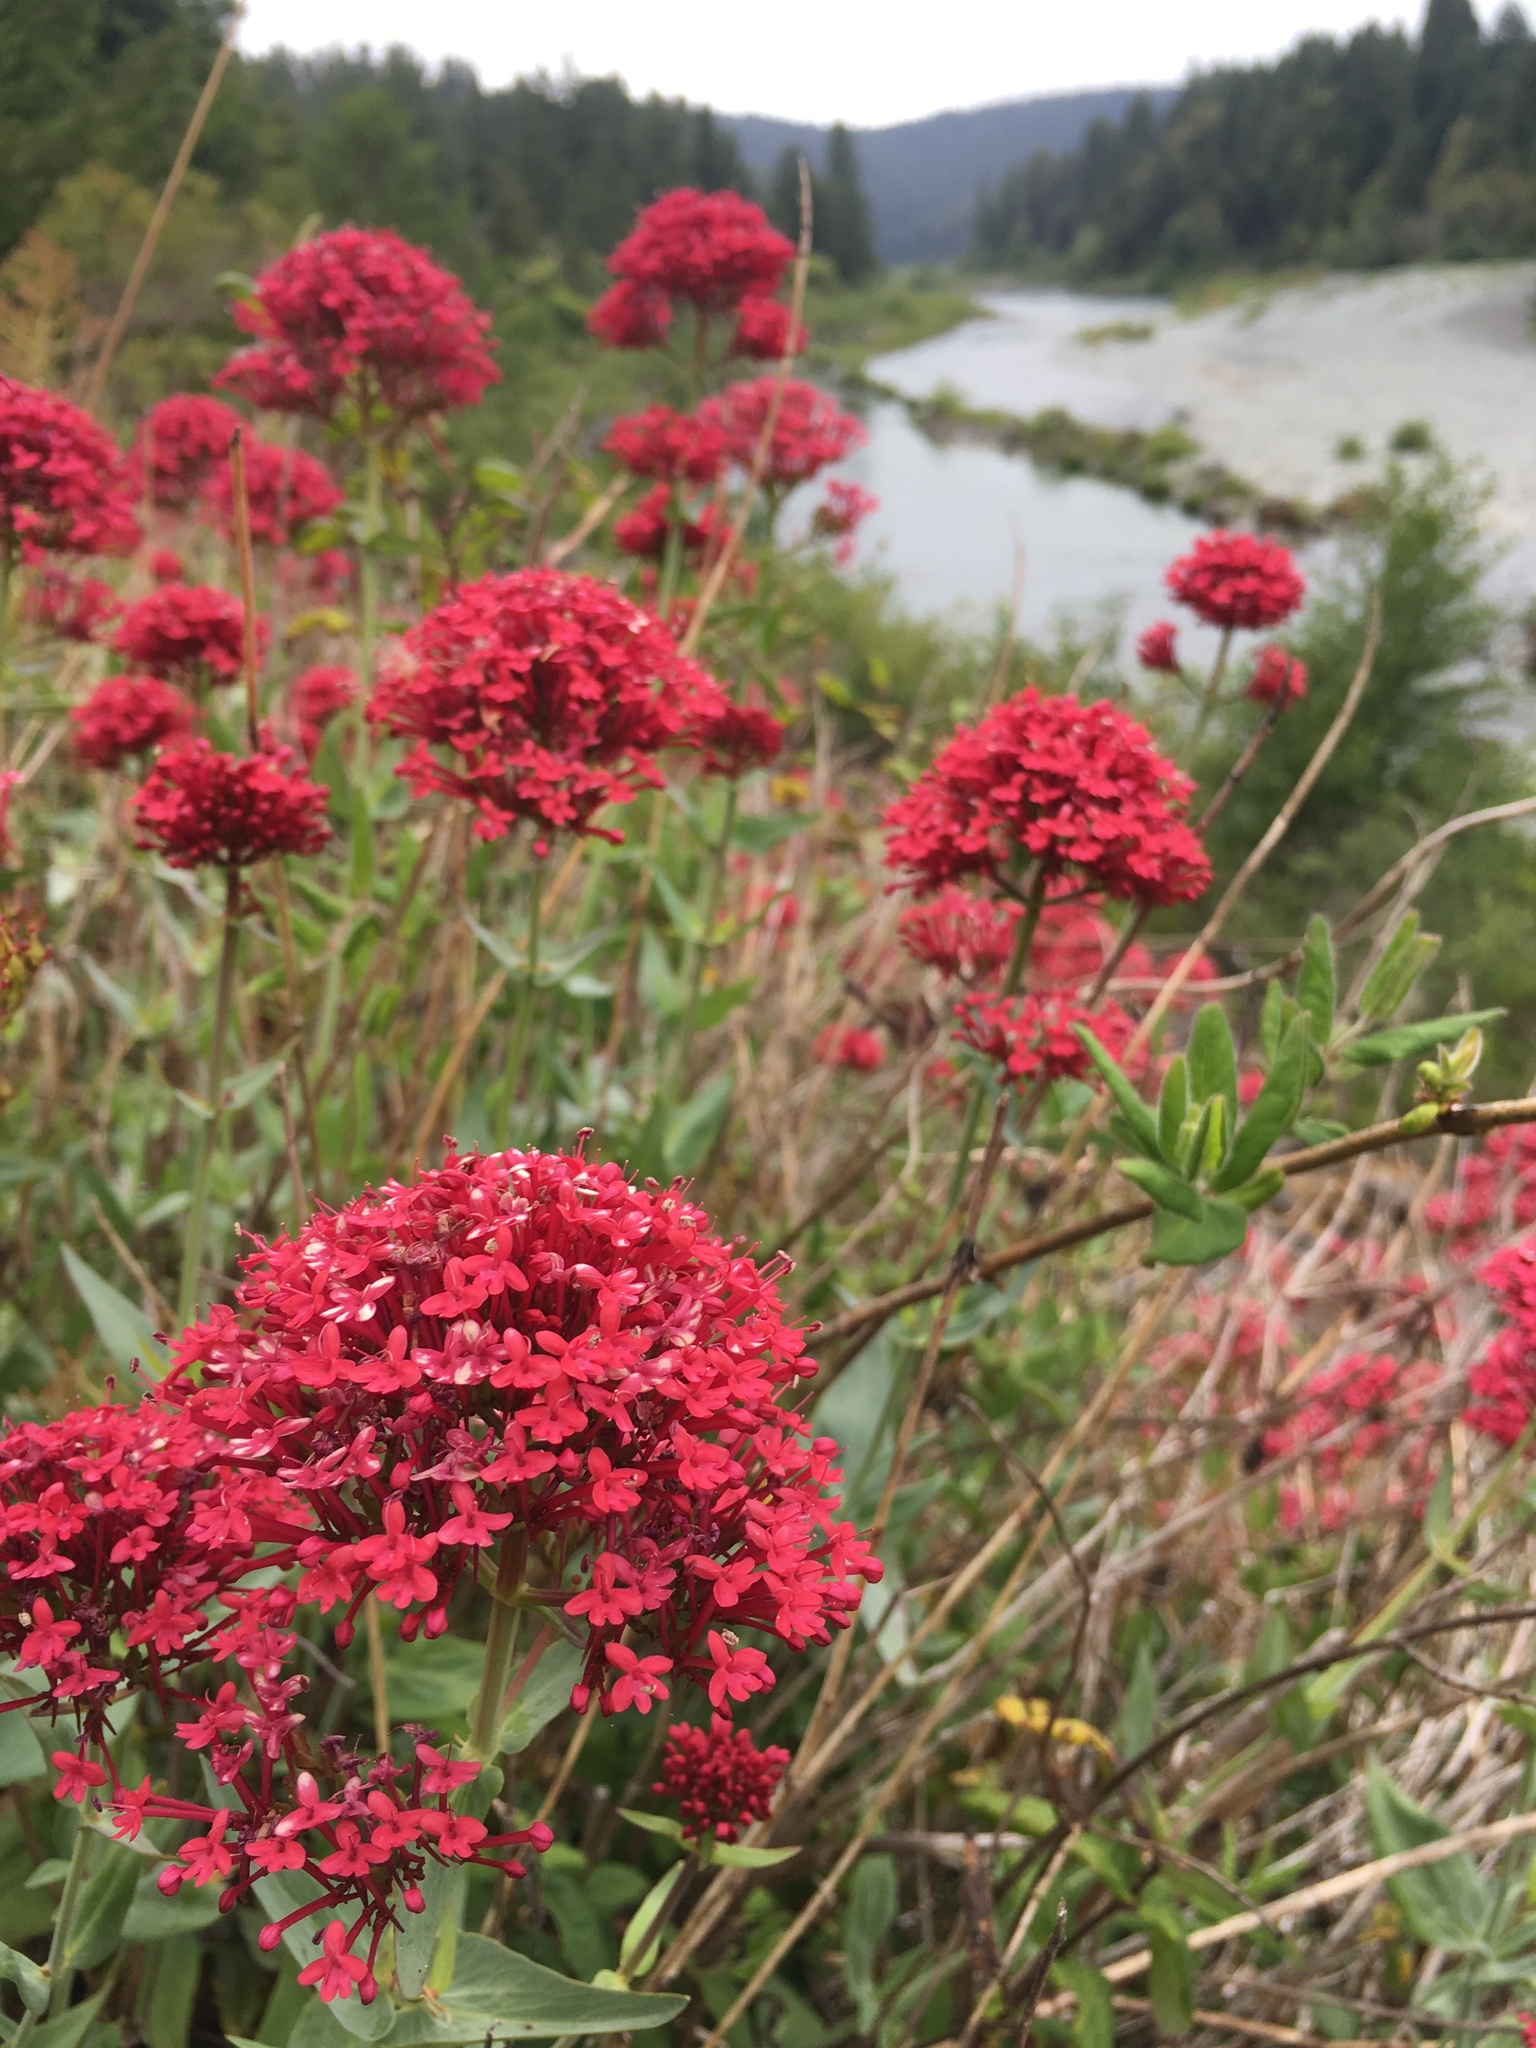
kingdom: Plantae
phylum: Tracheophyta
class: Magnoliopsida
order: Dipsacales
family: Caprifoliaceae
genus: Centranthus
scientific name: Centranthus ruber
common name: Red valerian
